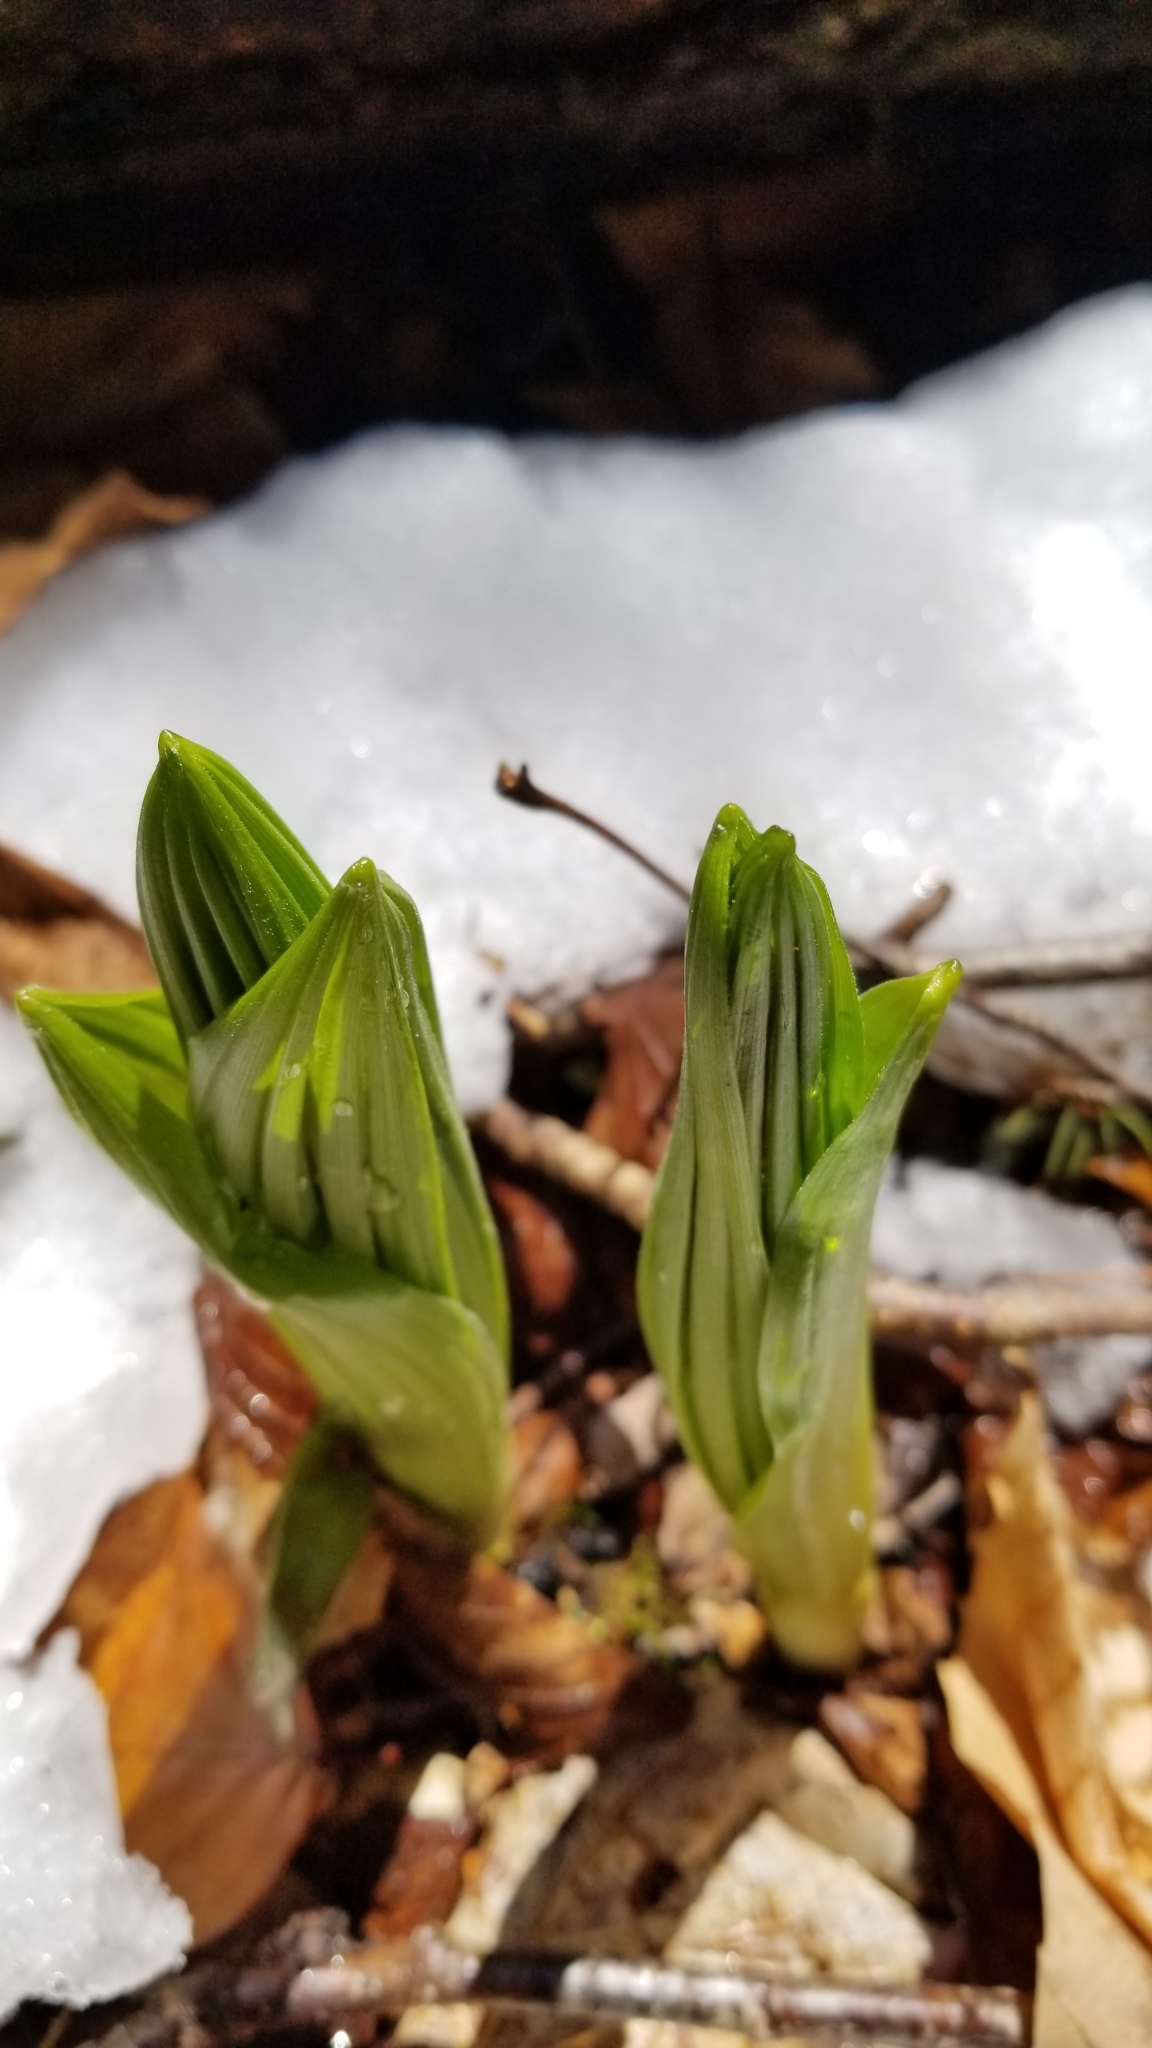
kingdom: Plantae
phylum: Tracheophyta
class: Liliopsida
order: Liliales
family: Melanthiaceae
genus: Veratrum
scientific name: Veratrum viride
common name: American false hellebore
